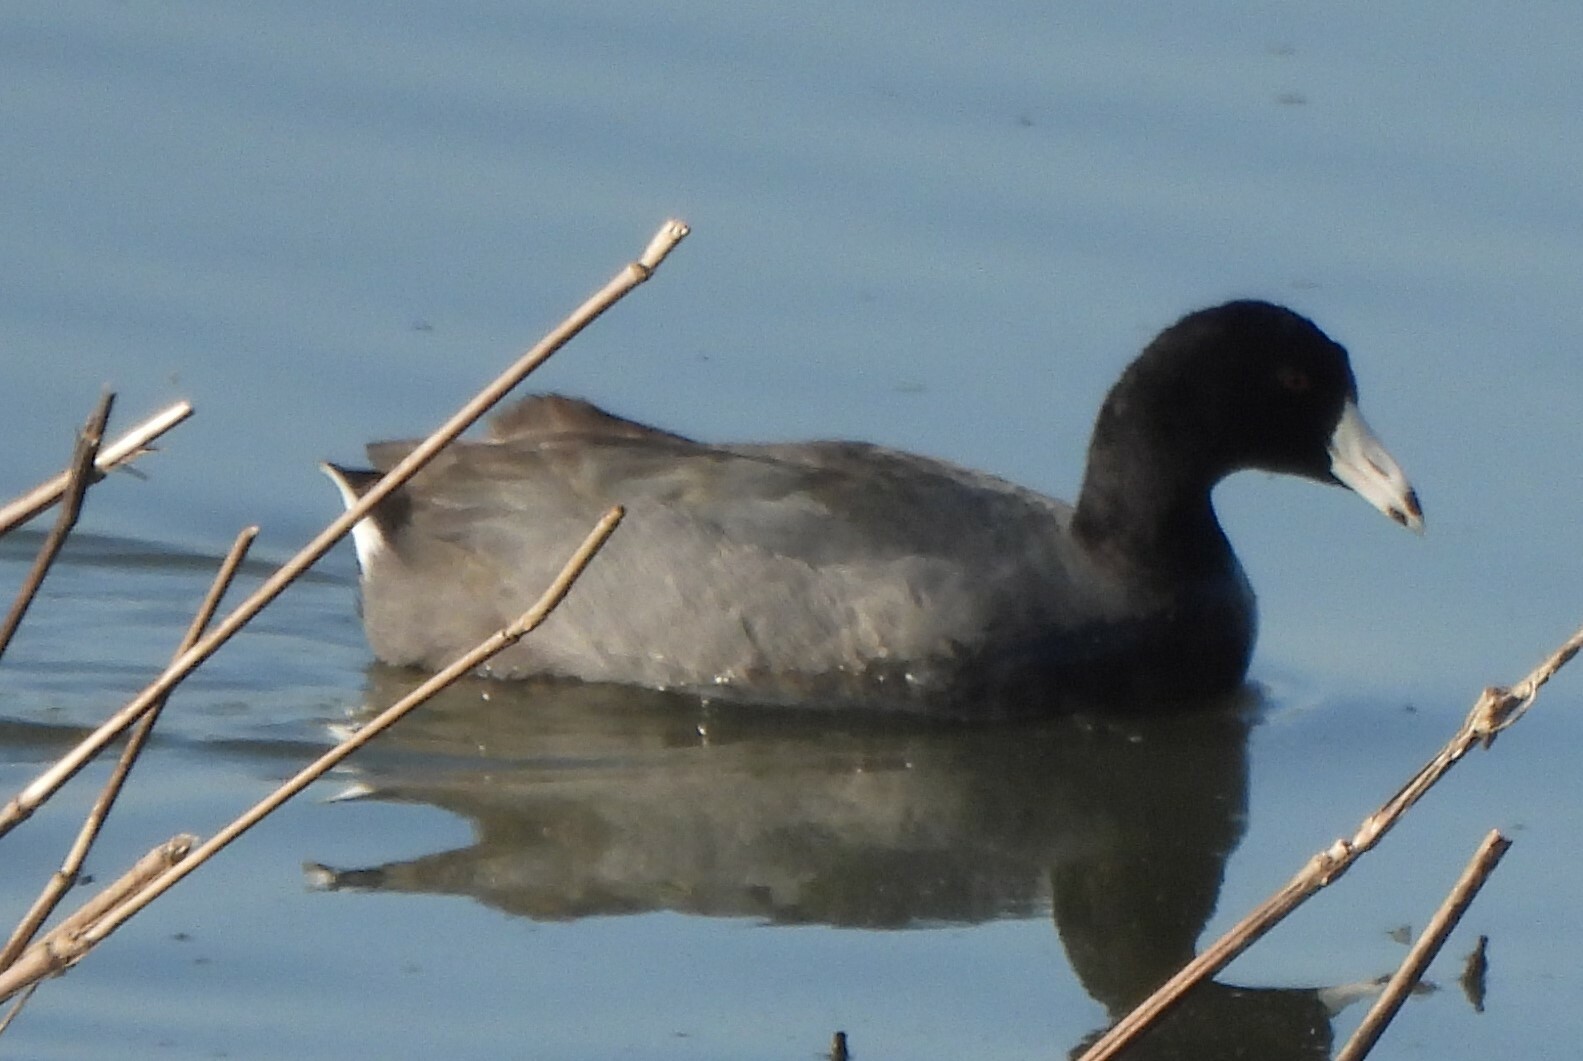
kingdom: Animalia
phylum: Chordata
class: Aves
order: Gruiformes
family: Rallidae
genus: Fulica
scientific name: Fulica americana
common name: American coot
